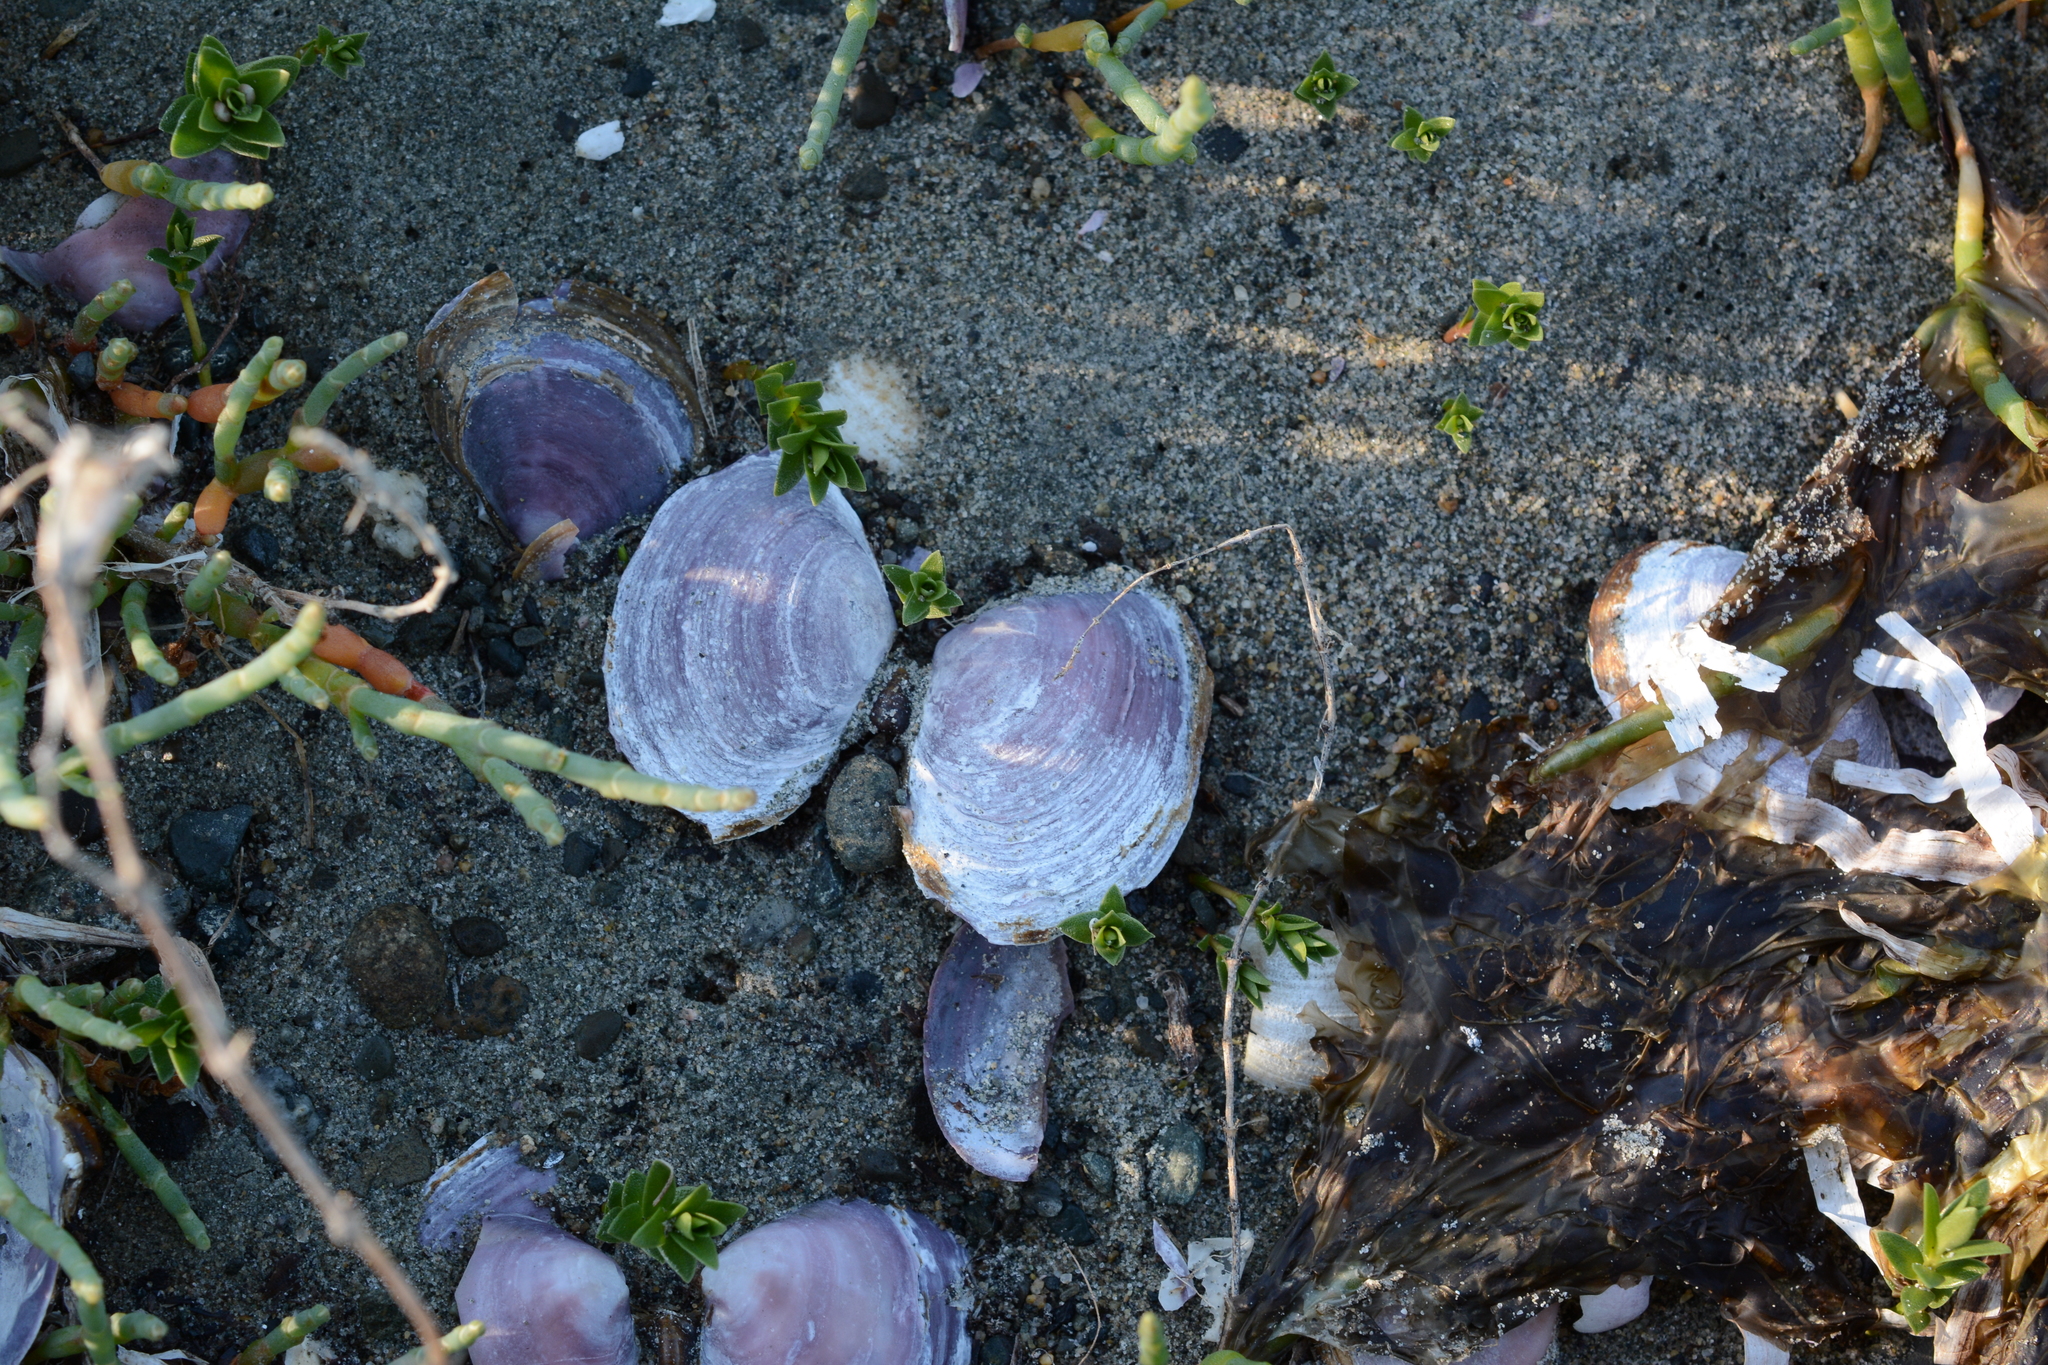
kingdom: Animalia
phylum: Mollusca
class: Bivalvia
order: Cardiida
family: Psammobiidae
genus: Nuttallia
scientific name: Nuttallia obscurata
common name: Purple mahogany-clam
